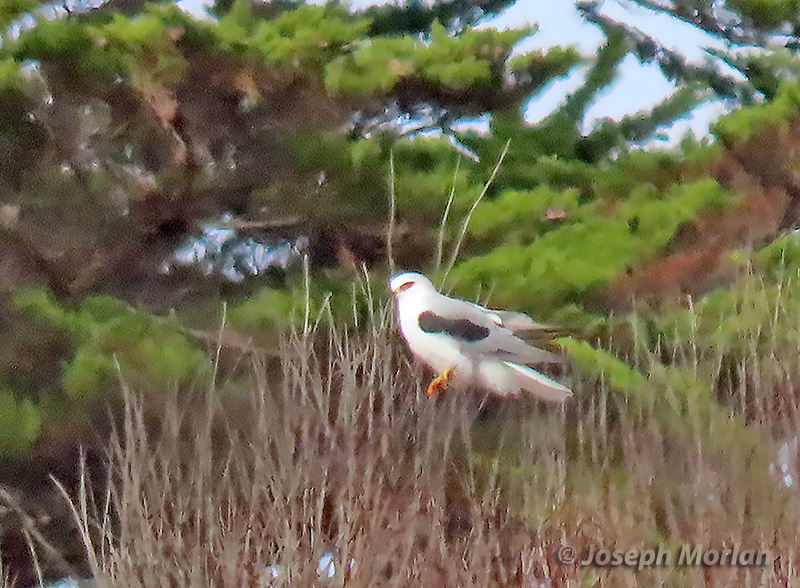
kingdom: Animalia
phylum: Chordata
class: Aves
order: Accipitriformes
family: Accipitridae
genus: Elanus
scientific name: Elanus leucurus
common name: White-tailed kite
